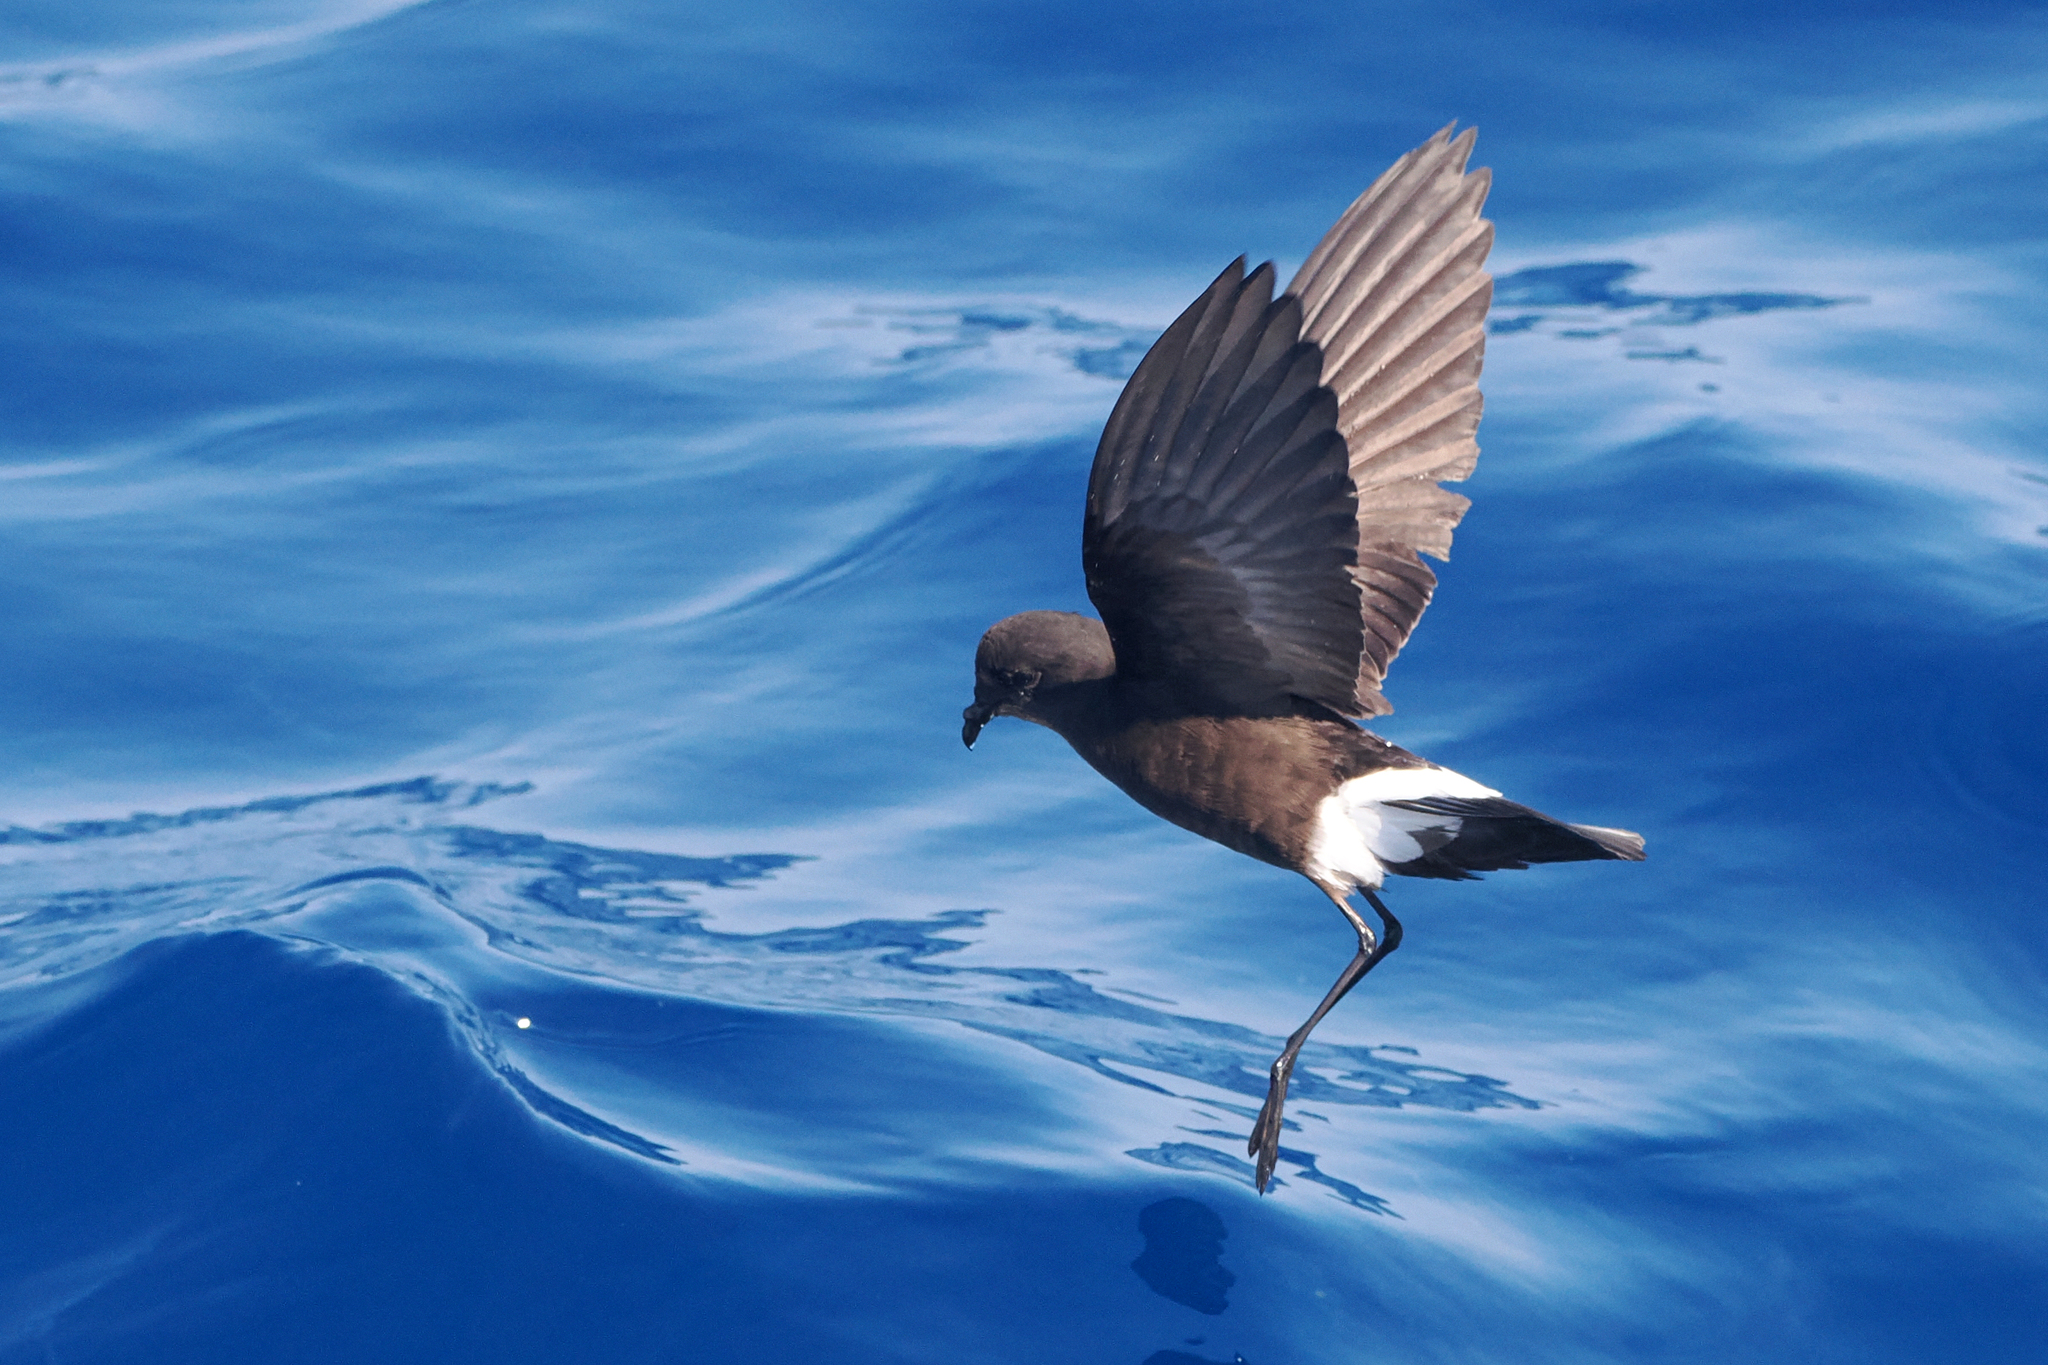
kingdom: Animalia
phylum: Chordata
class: Aves
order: Procellariiformes
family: Hydrobatidae
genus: Oceanites
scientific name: Oceanites oceanicus
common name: Wilson's storm petrel
